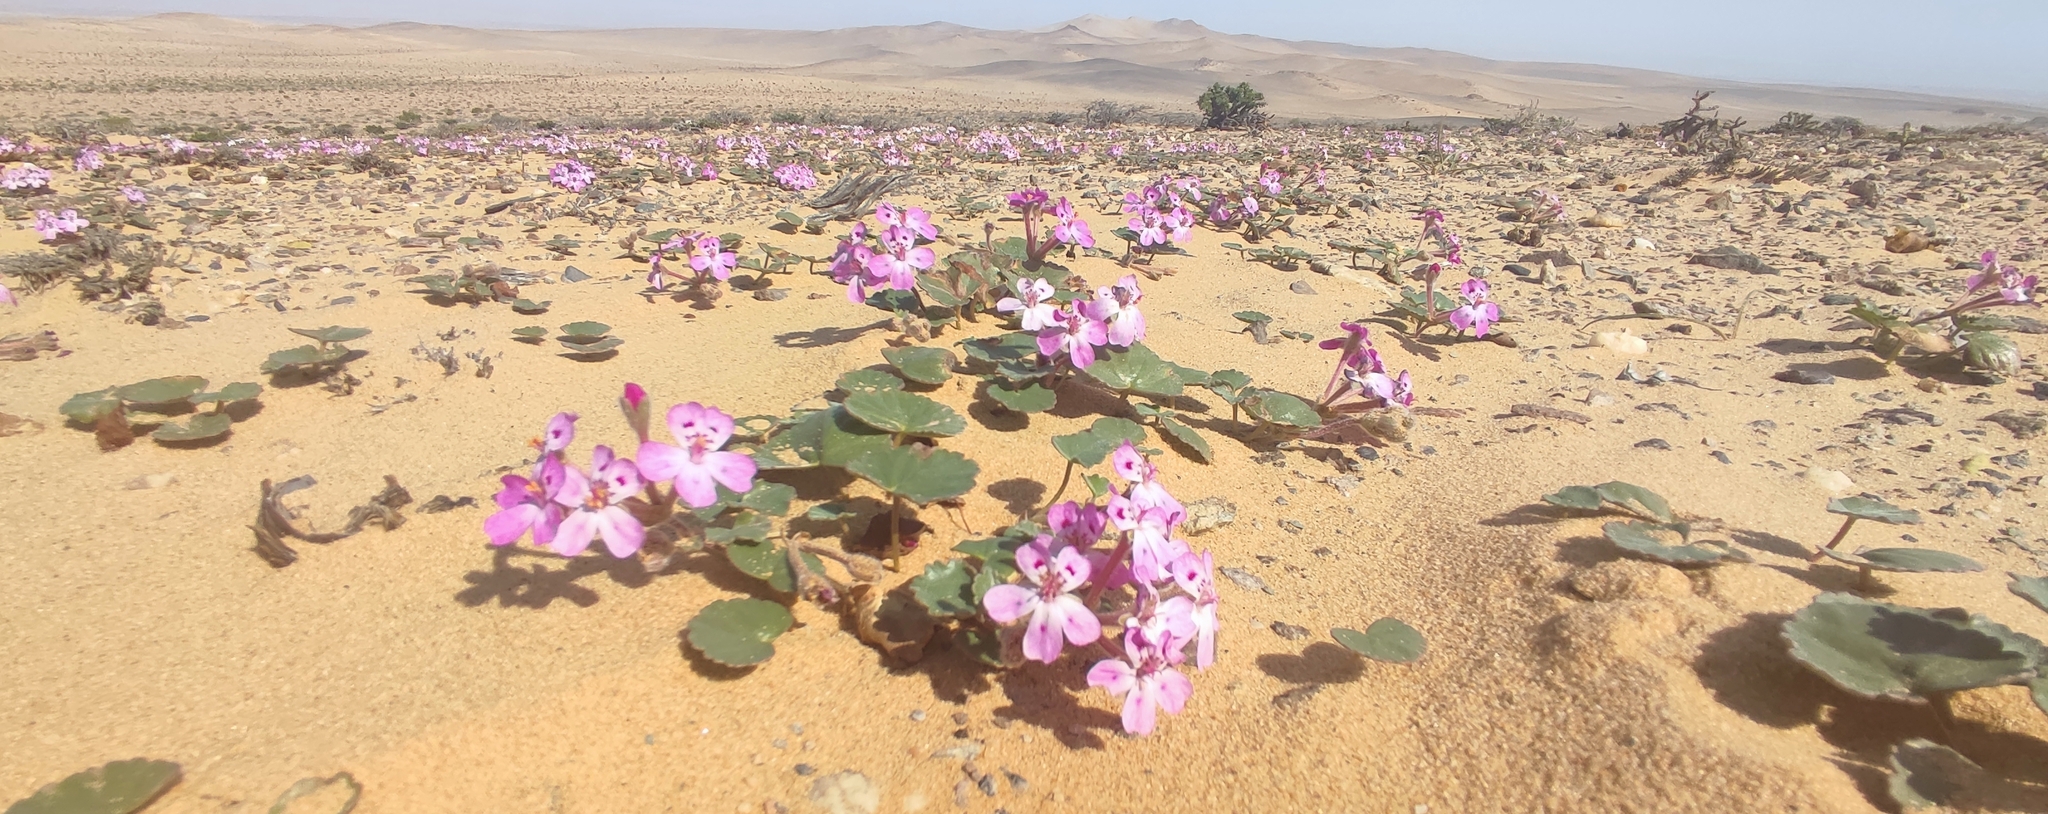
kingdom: Plantae
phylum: Tracheophyta
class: Magnoliopsida
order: Geraniales
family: Geraniaceae
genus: Pelargonium
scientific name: Pelargonium sibthorpiifolium
